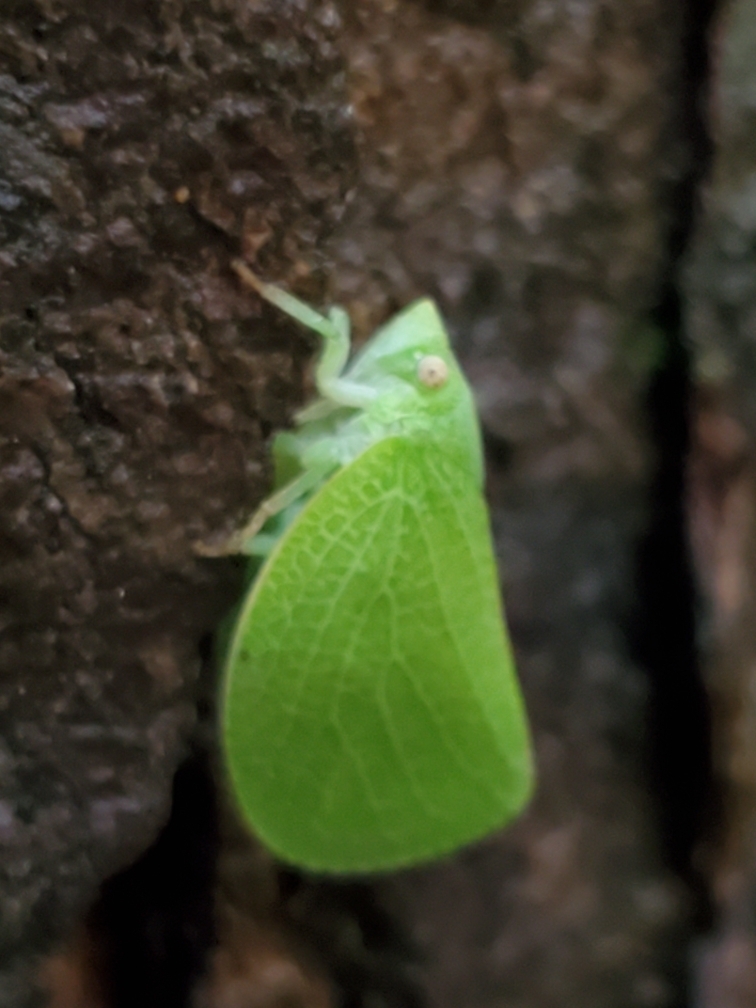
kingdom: Animalia
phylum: Arthropoda
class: Insecta
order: Hemiptera
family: Acanaloniidae
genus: Acanalonia
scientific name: Acanalonia conica
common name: Green cone-headed planthopper
